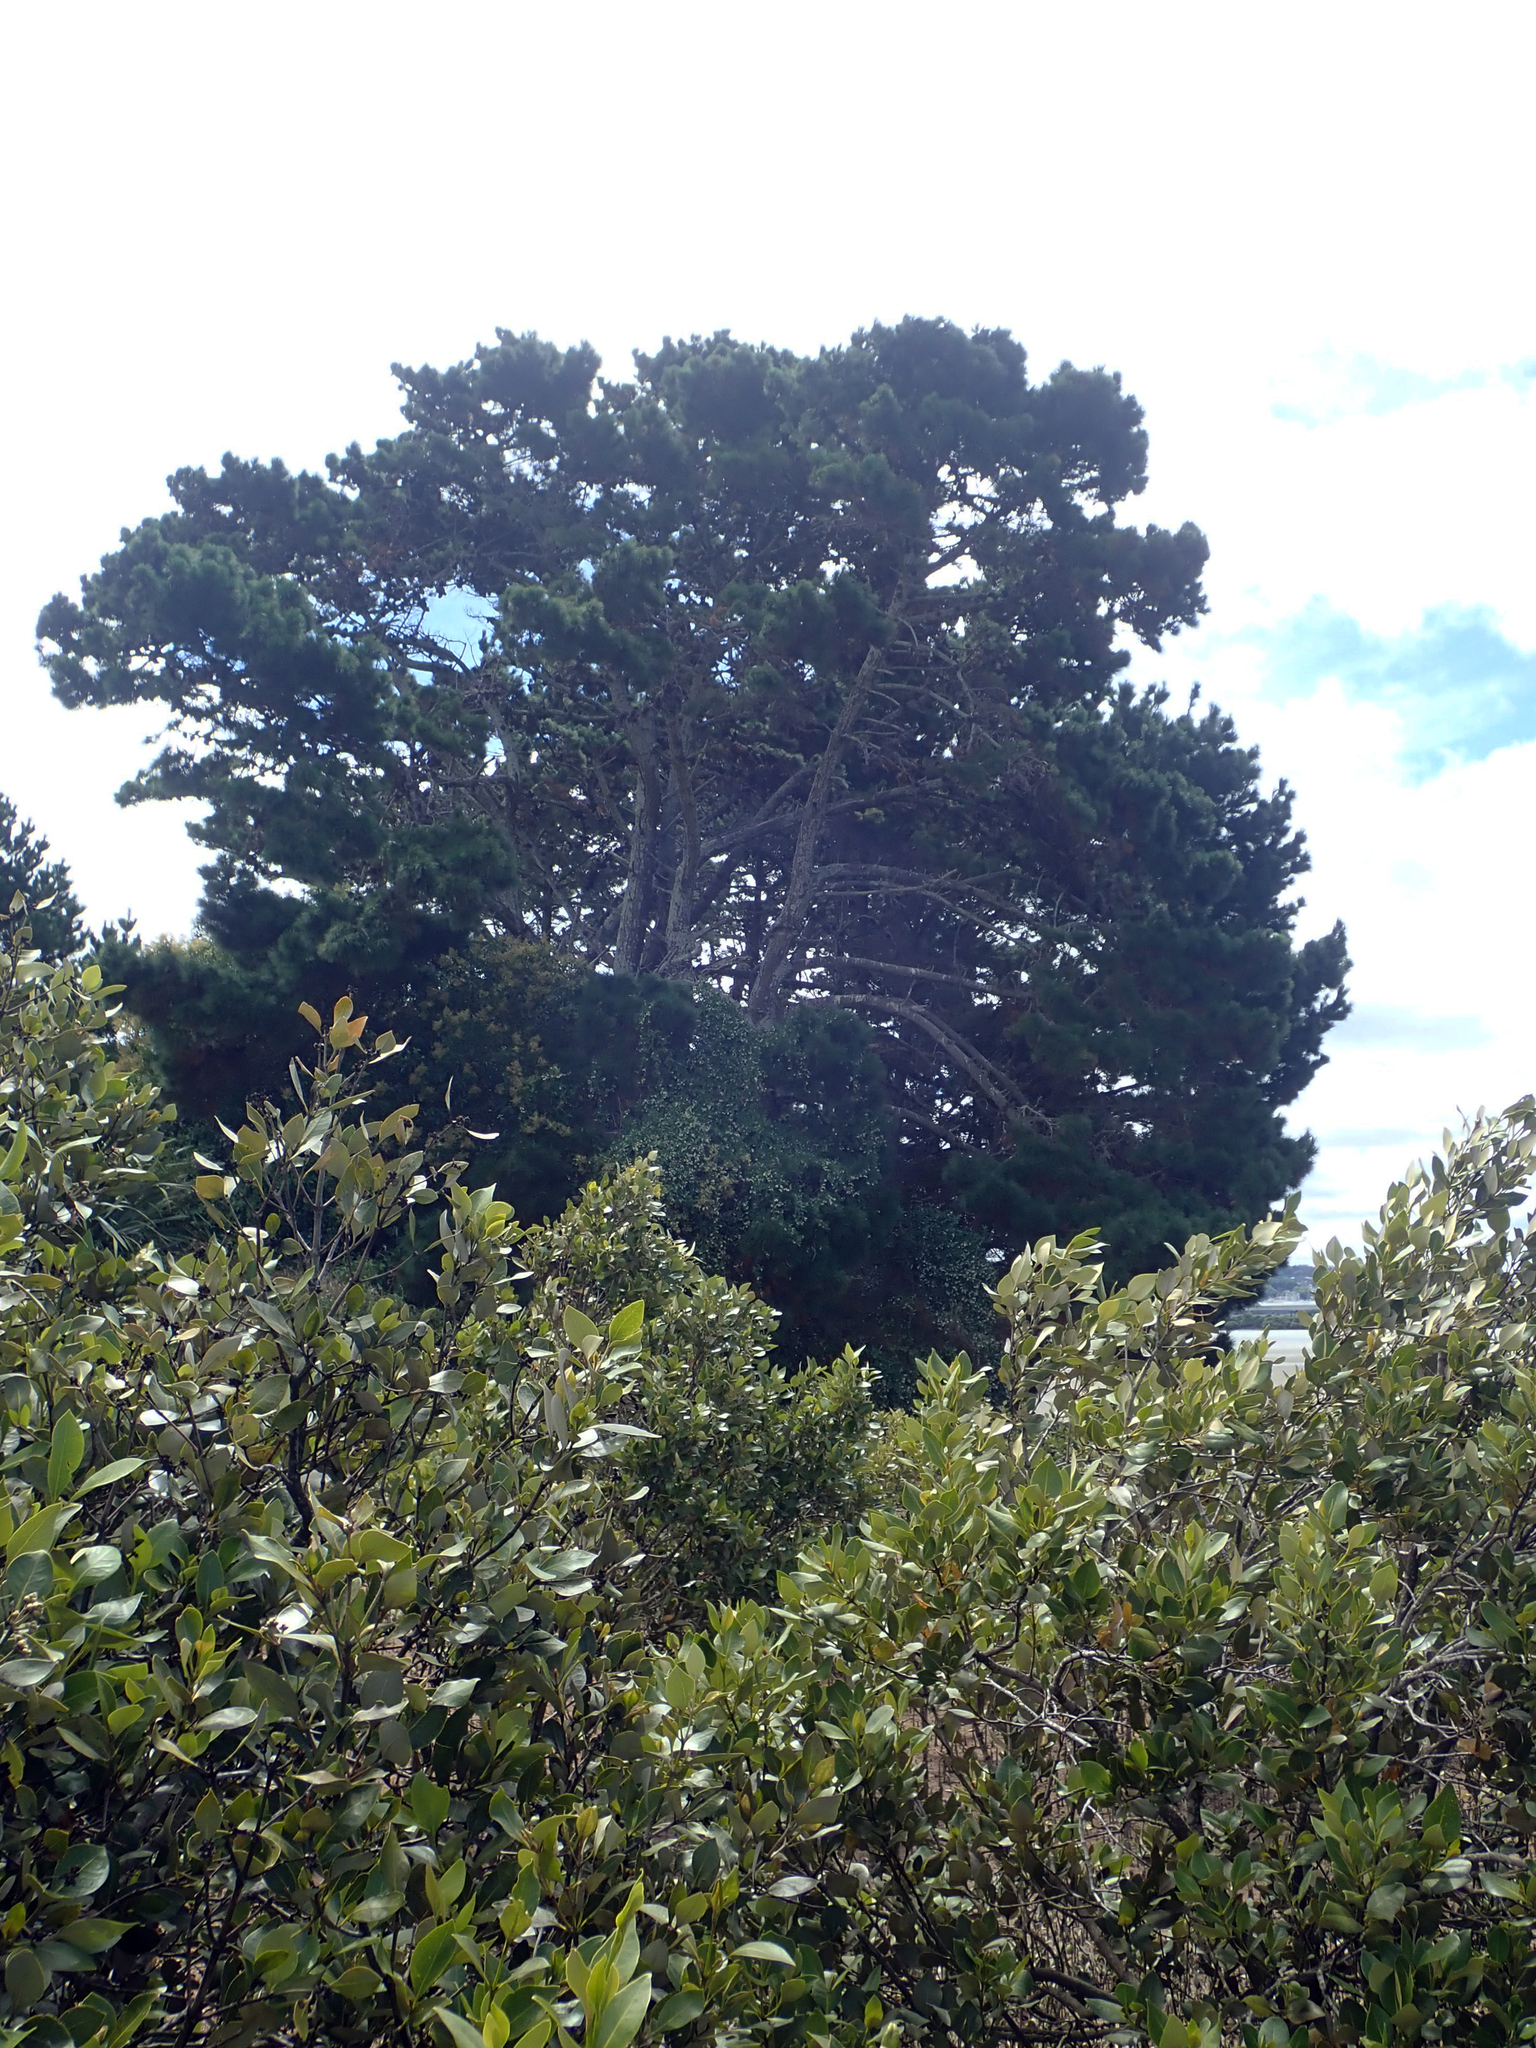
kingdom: Plantae
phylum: Tracheophyta
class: Pinopsida
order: Pinales
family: Pinaceae
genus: Pinus
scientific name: Pinus radiata
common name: Monterey pine
